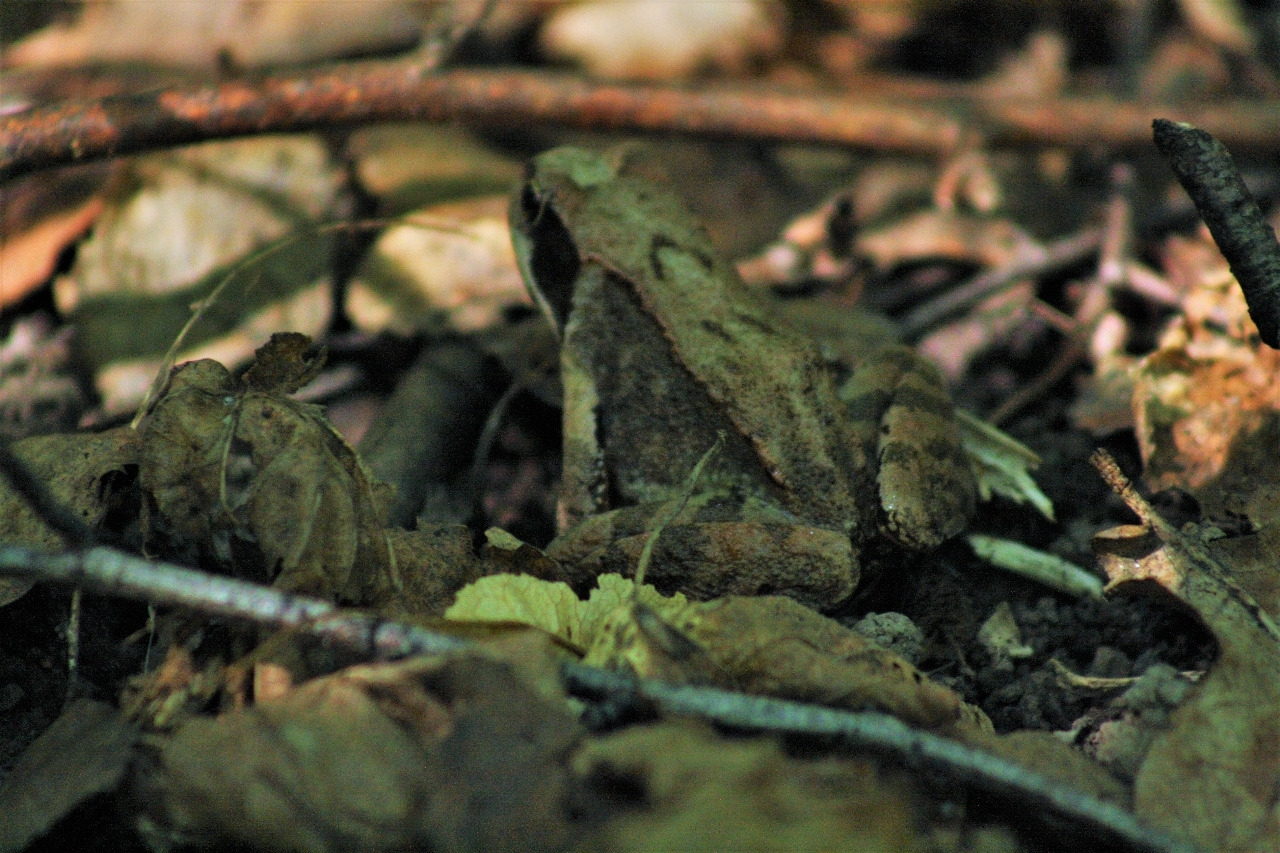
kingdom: Animalia
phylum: Chordata
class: Amphibia
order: Anura
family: Ranidae
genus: Rana
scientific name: Rana temporaria
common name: Common frog
